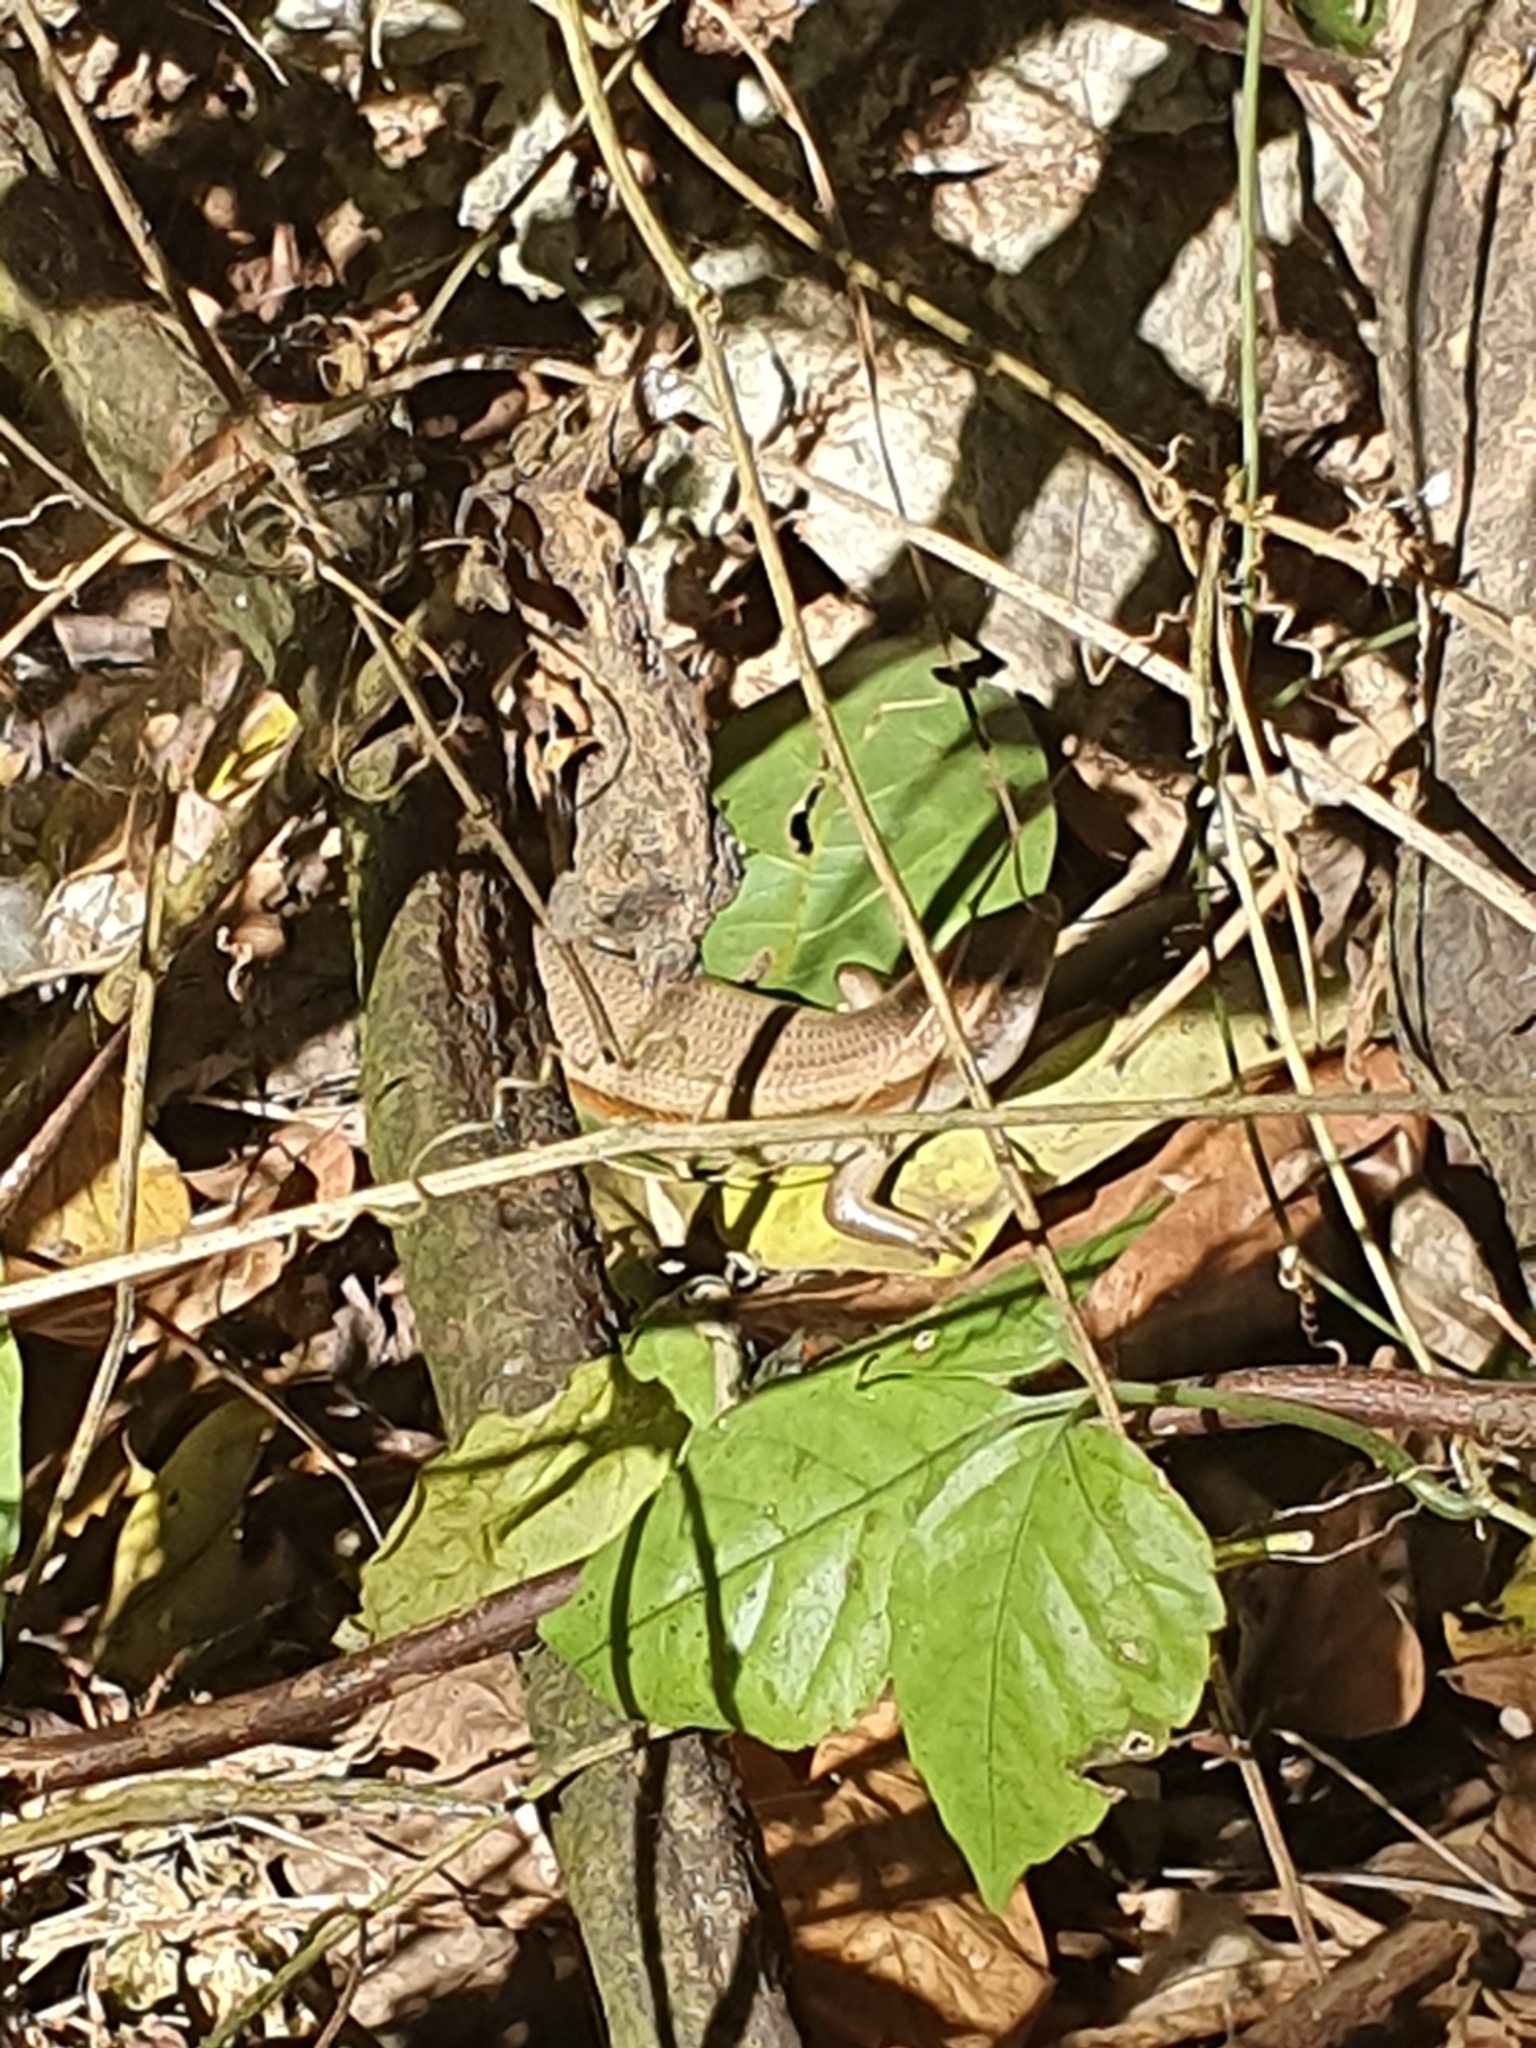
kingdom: Animalia
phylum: Chordata
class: Squamata
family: Scincidae
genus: Eutropis
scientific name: Eutropis multifasciata
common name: Common mabuya
